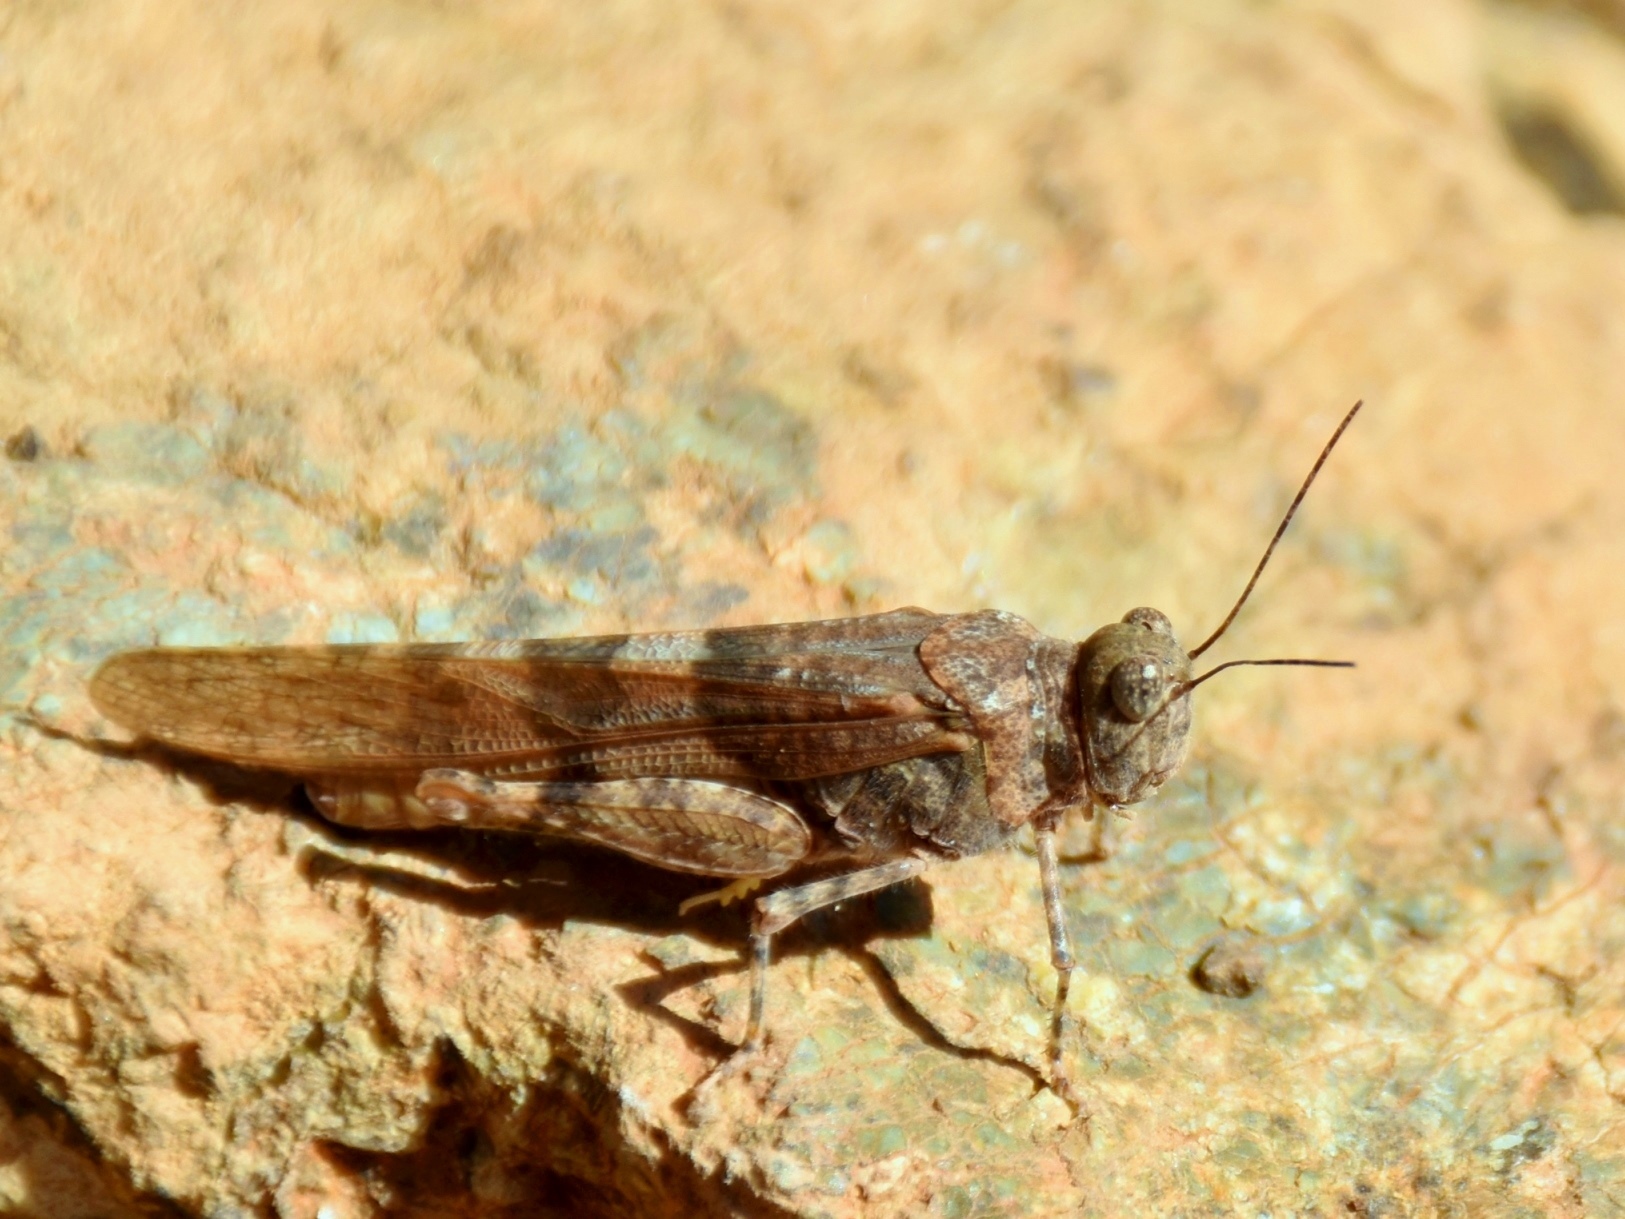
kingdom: Animalia
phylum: Arthropoda
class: Insecta
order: Orthoptera
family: Acrididae
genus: Sphingonotus
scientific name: Sphingonotus caerulans
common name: Blue-winged locust
